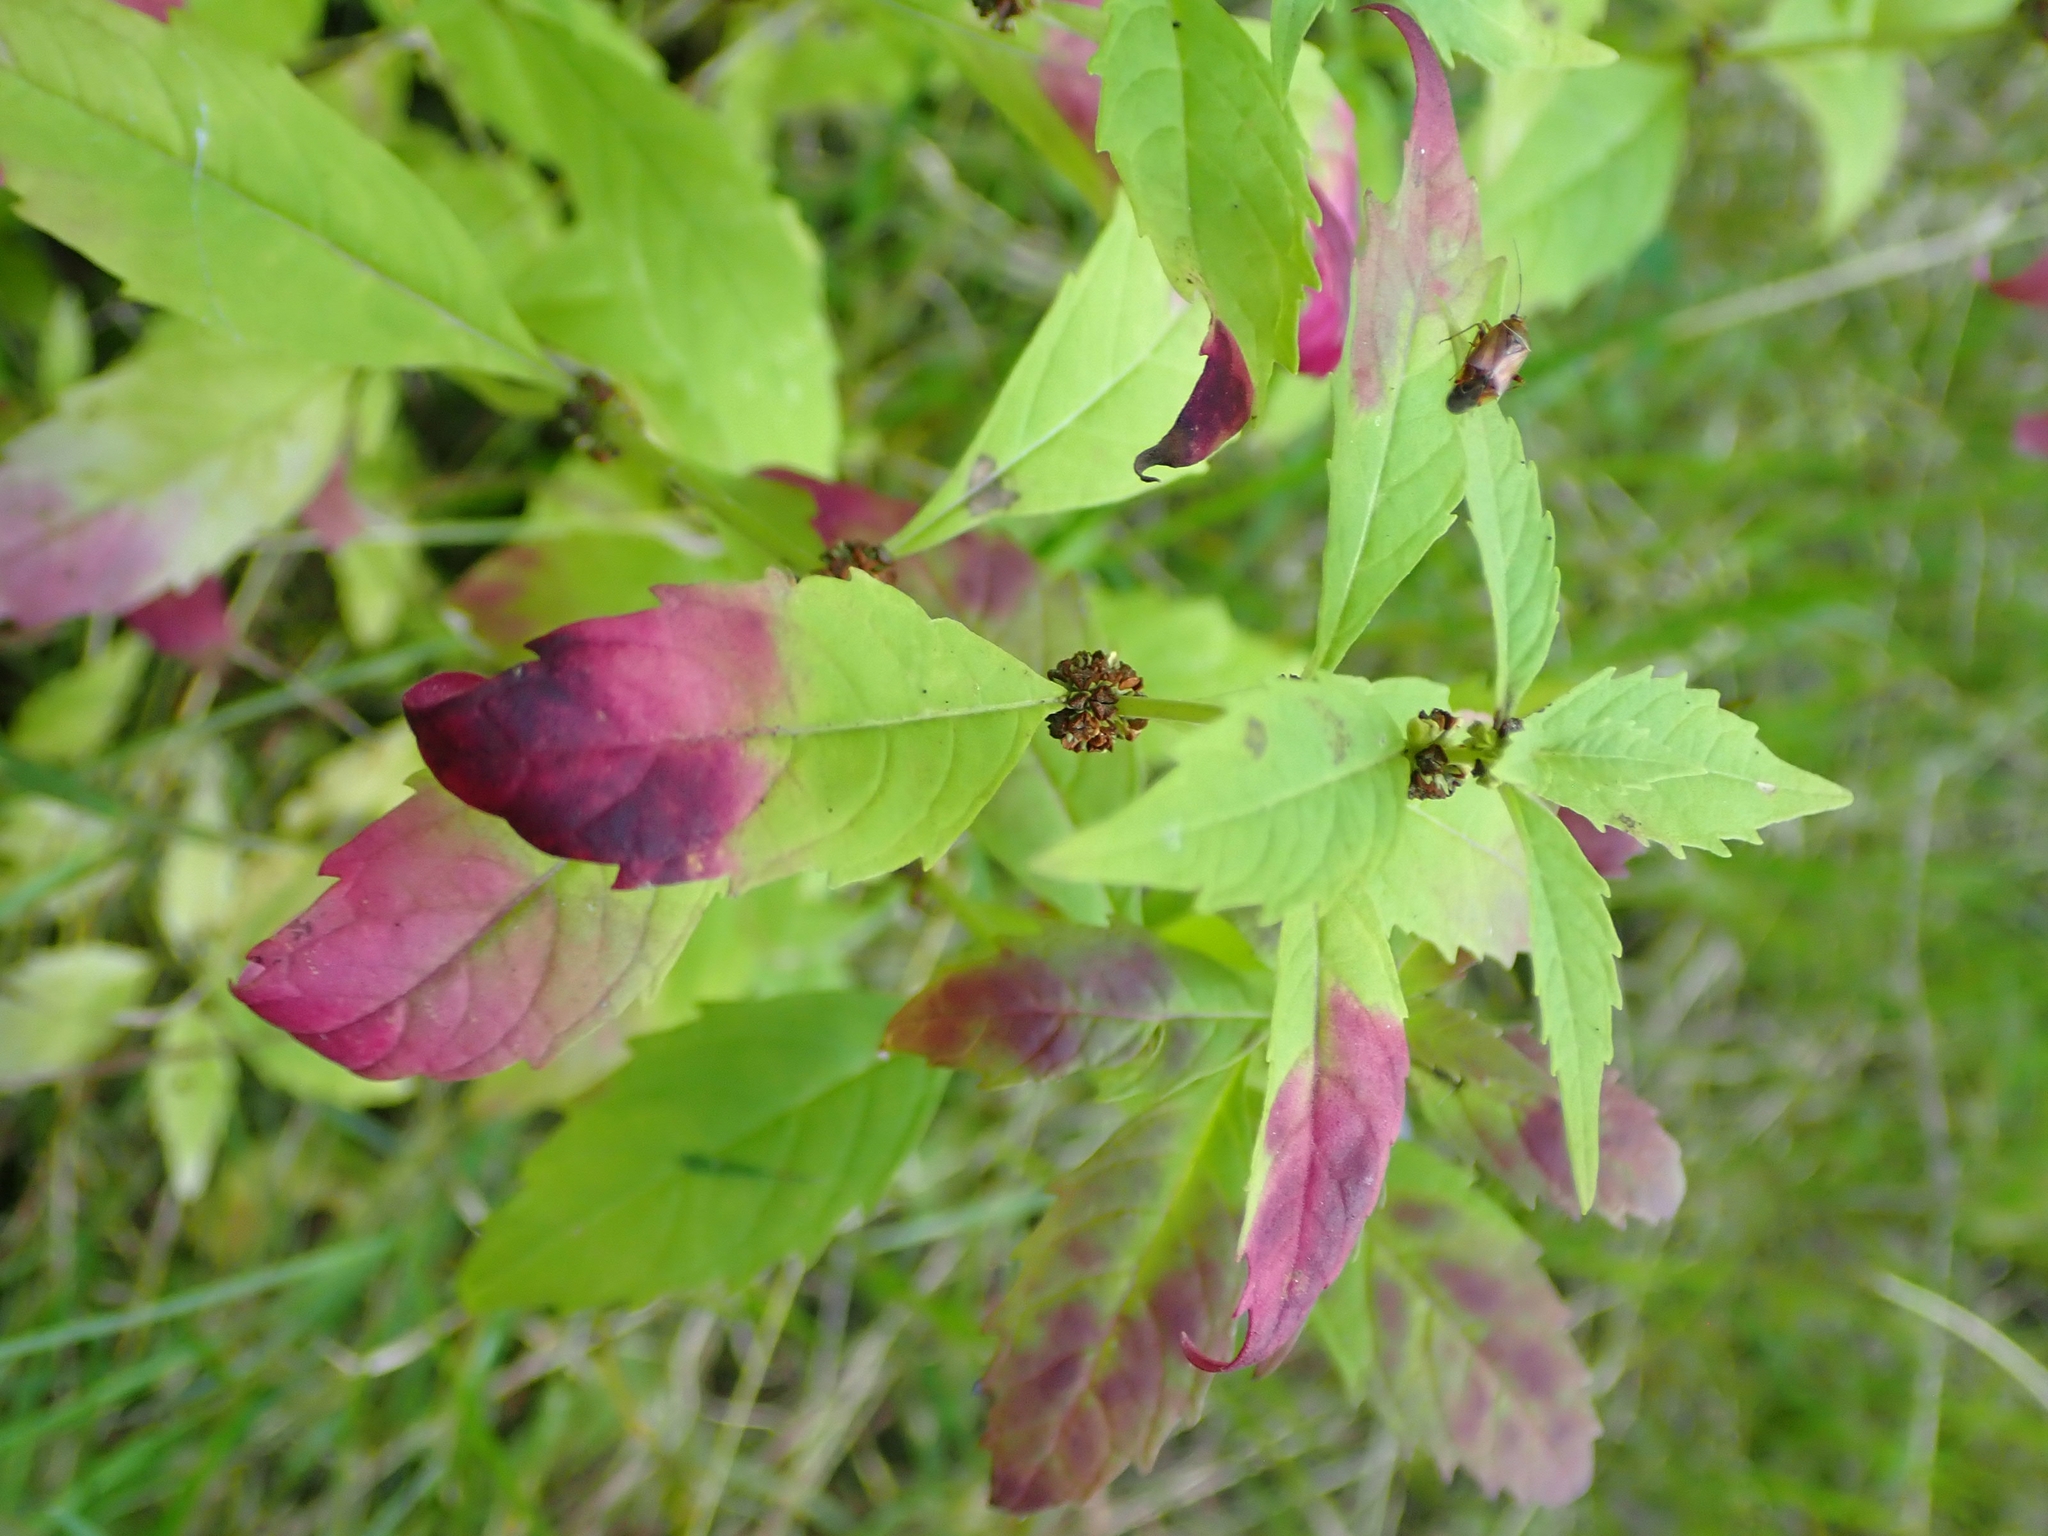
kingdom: Plantae
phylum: Tracheophyta
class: Magnoliopsida
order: Lamiales
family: Lamiaceae
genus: Lycopus
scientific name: Lycopus uniflorus
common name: Northern bugleweed
